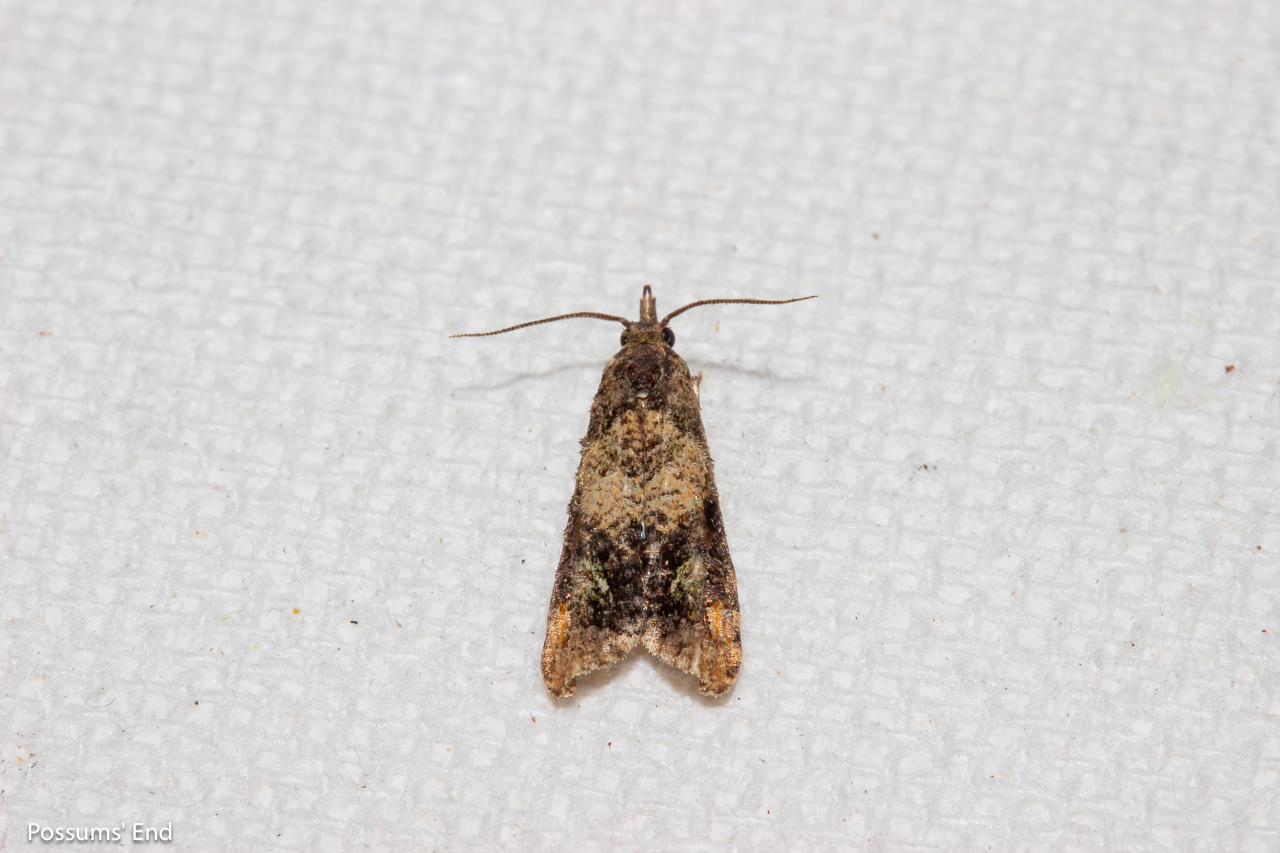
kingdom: Animalia
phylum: Arthropoda
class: Insecta
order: Lepidoptera
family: Copromorphidae
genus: Phycomorpha
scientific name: Phycomorpha metachrysa
